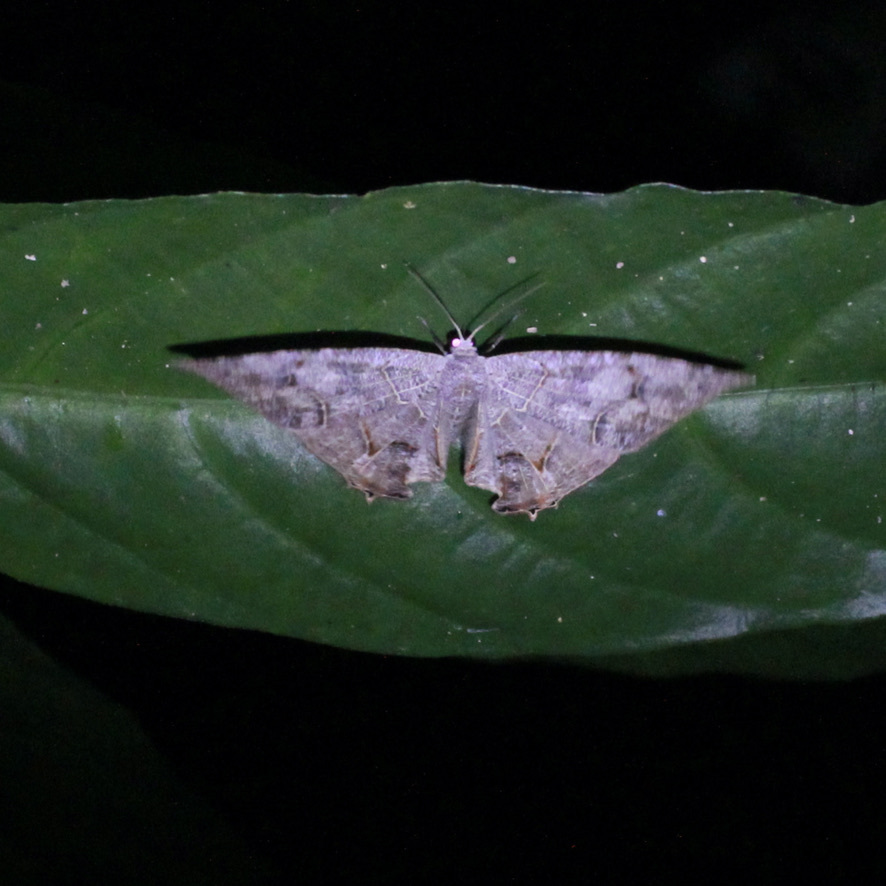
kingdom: Animalia
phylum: Arthropoda
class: Insecta
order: Lepidoptera
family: Uraniidae
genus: Syngria
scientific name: Syngria druidaria
